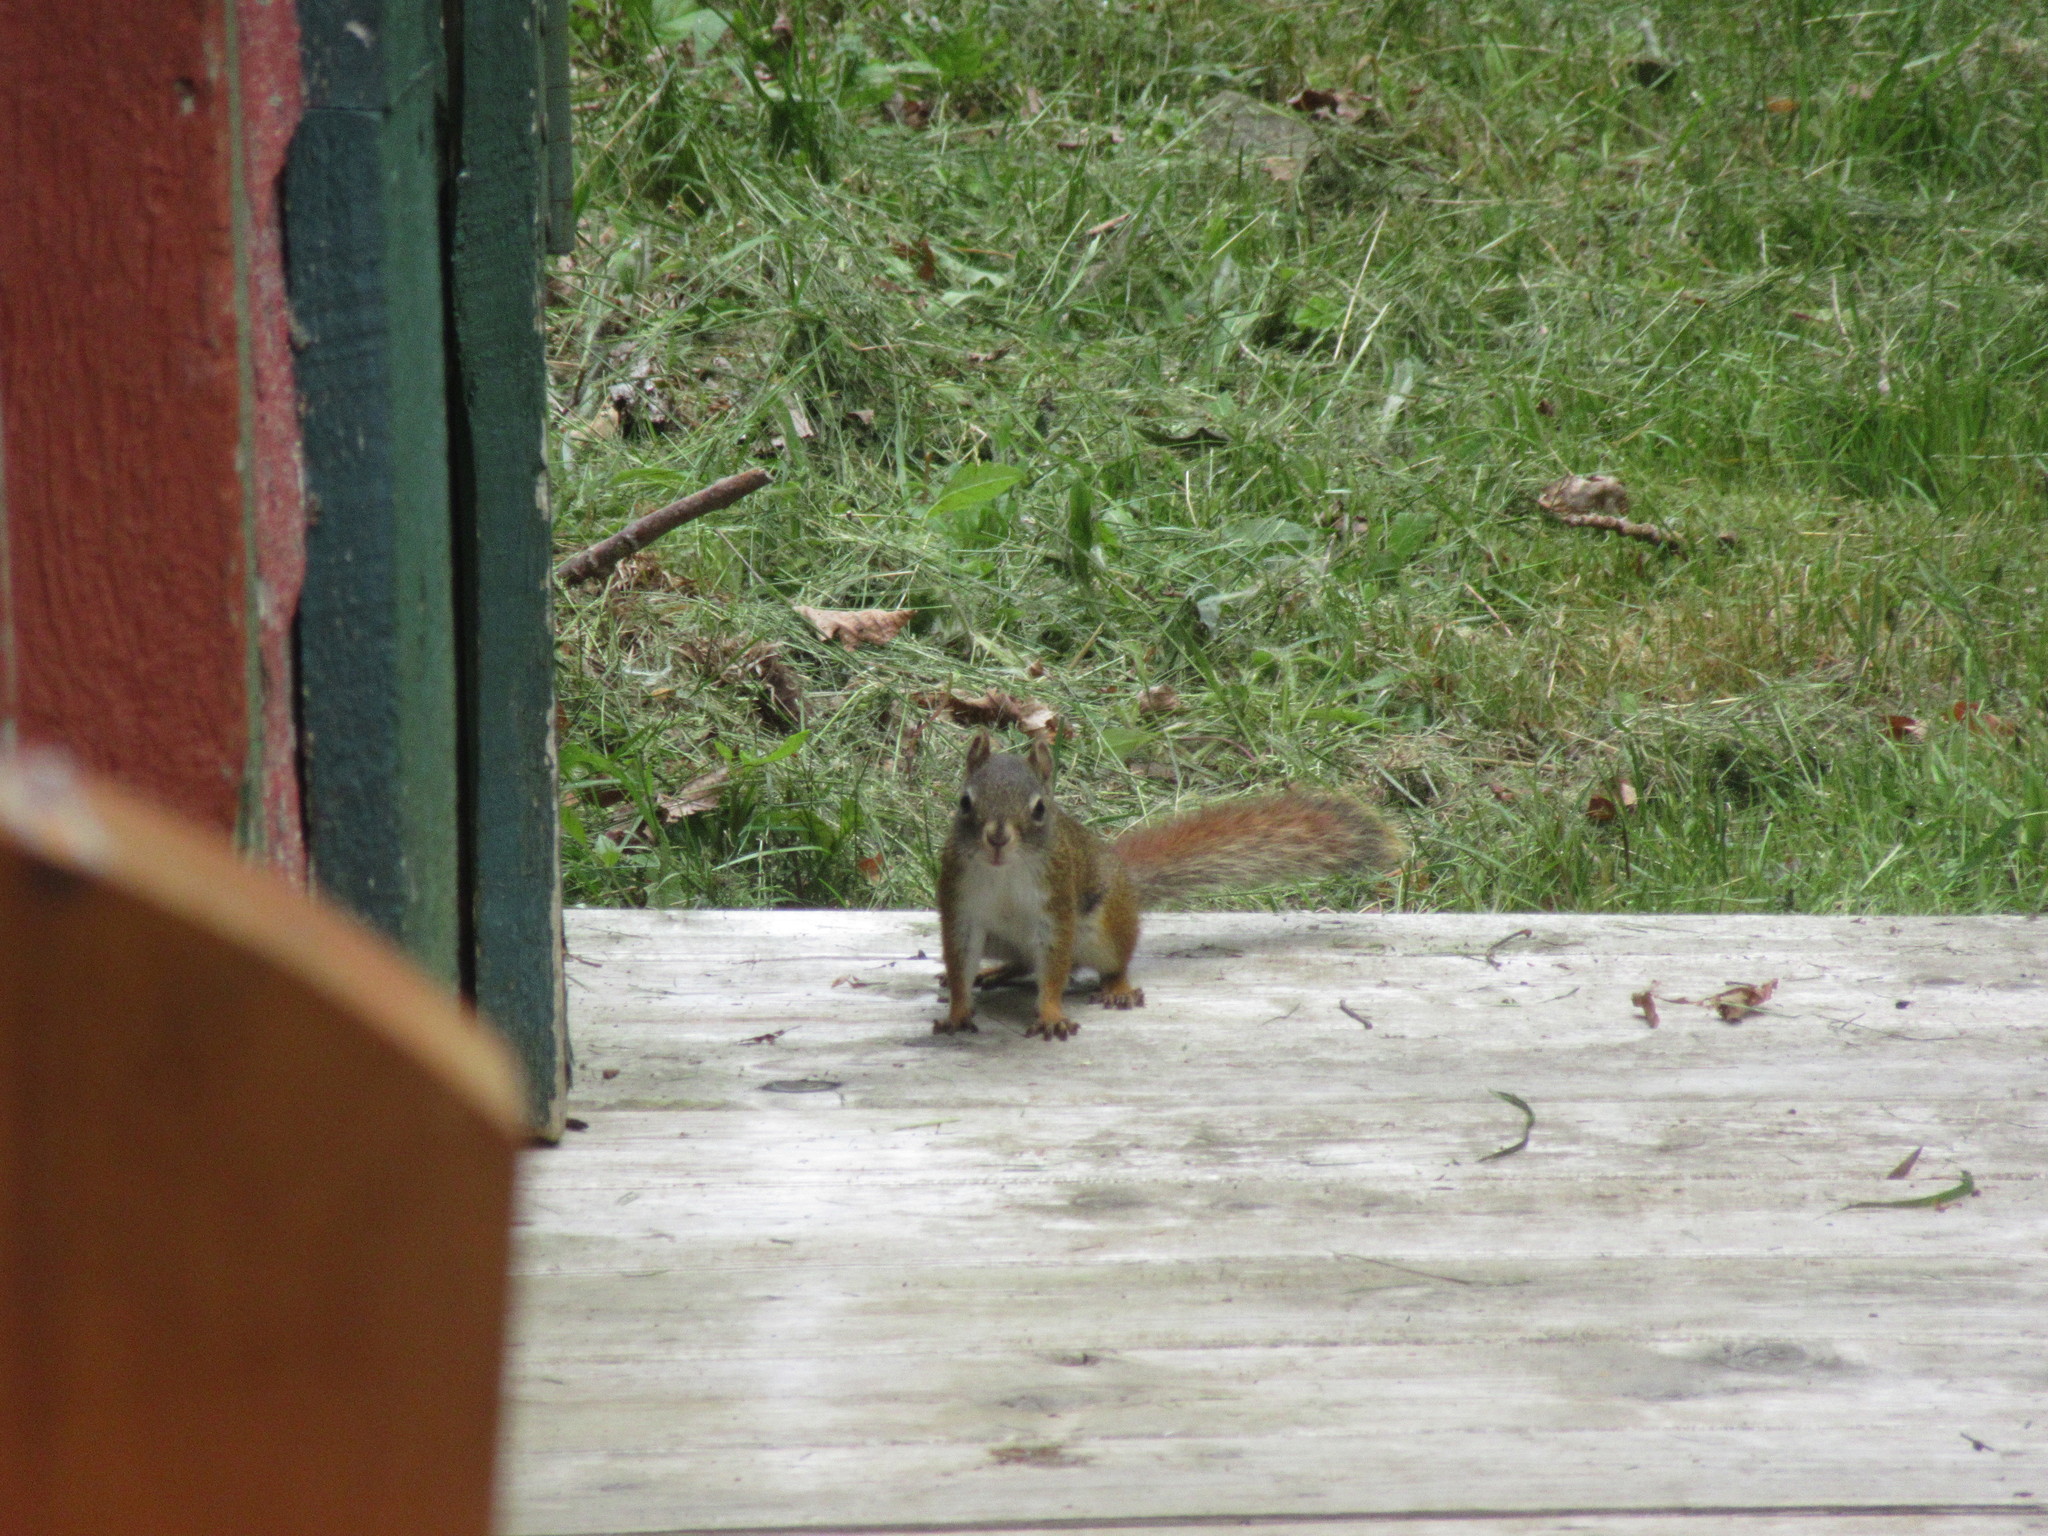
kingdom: Animalia
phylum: Chordata
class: Mammalia
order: Rodentia
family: Sciuridae
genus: Tamiasciurus
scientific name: Tamiasciurus hudsonicus
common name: Red squirrel
